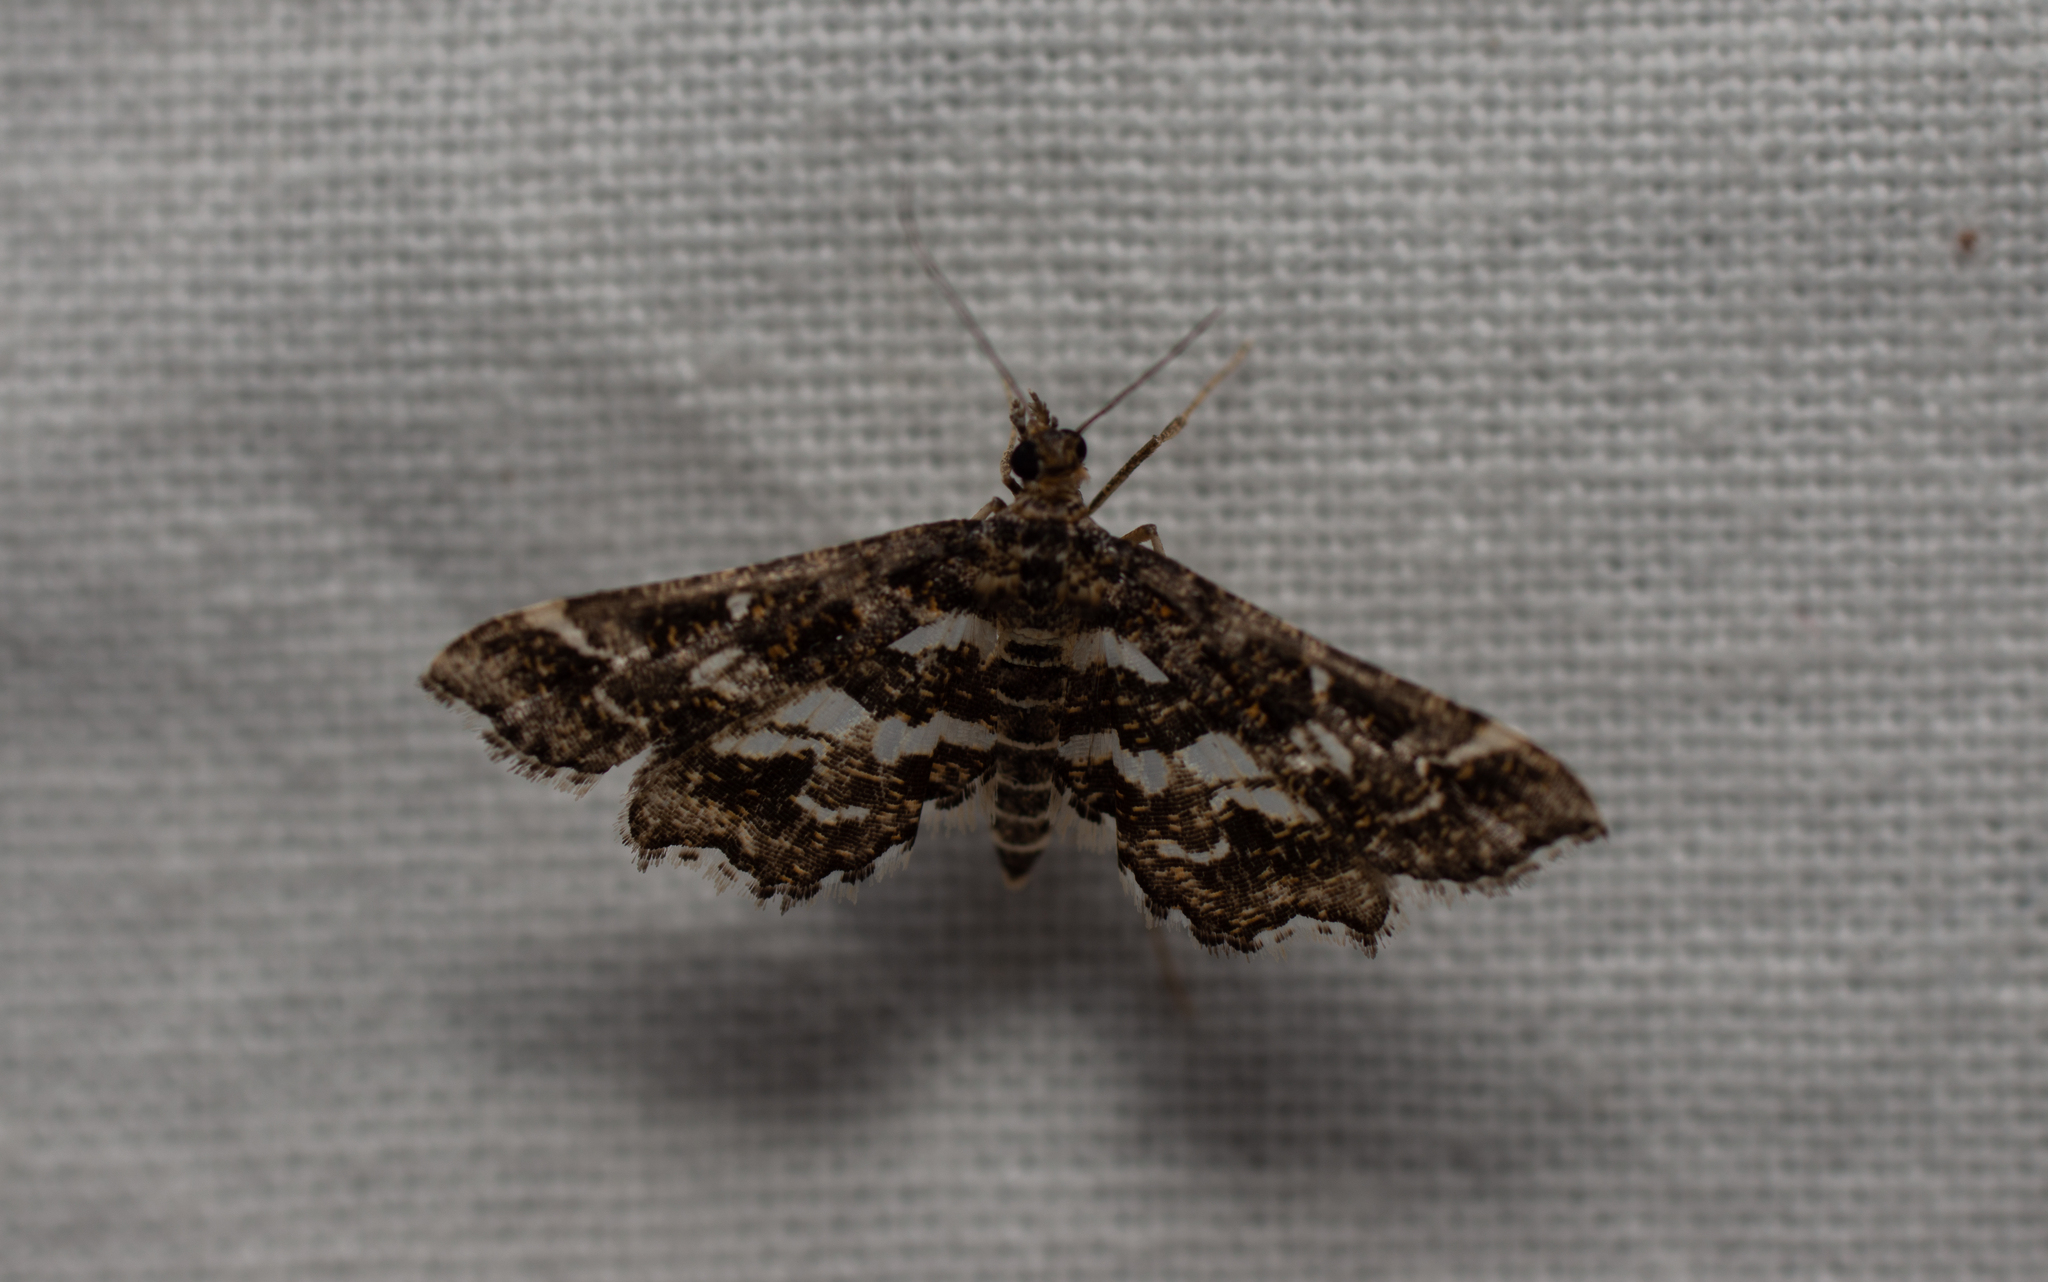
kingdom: Animalia
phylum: Arthropoda
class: Insecta
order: Lepidoptera
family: Crambidae
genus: Diasemiopsis
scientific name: Diasemiopsis ramburialis
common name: Vagrant china-mark
